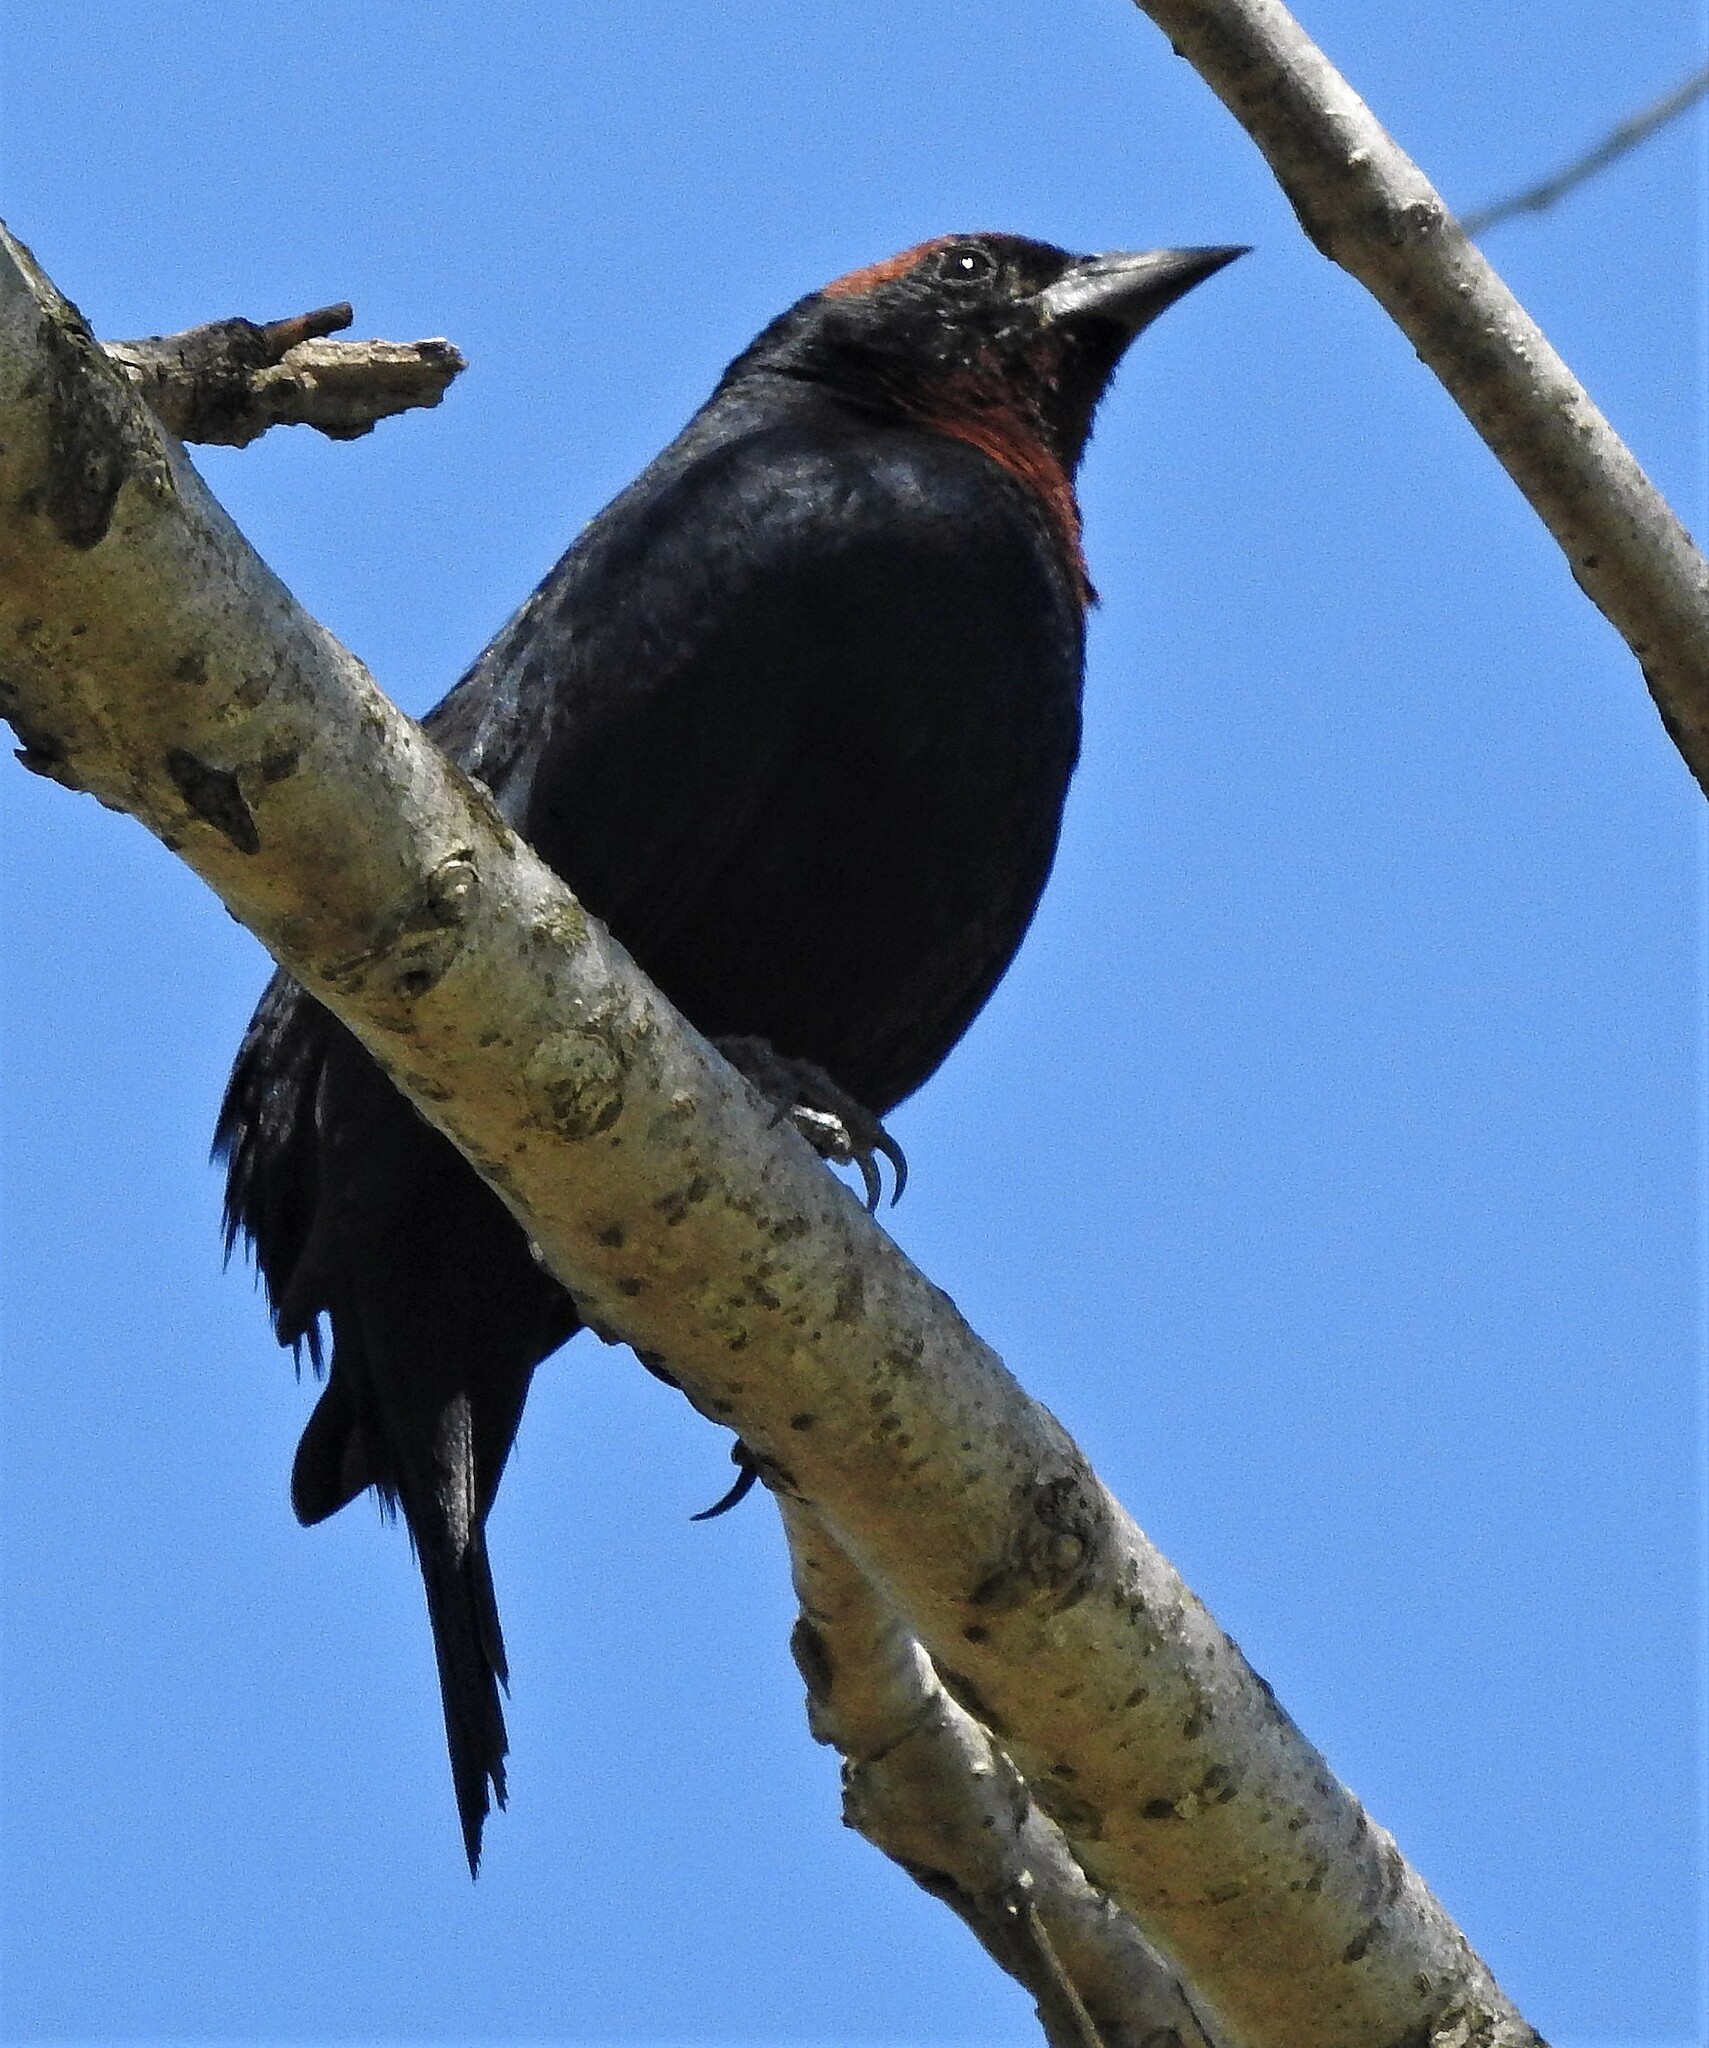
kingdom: Animalia
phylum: Chordata
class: Aves
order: Passeriformes
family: Icteridae
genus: Chrysomus
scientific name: Chrysomus ruficapillus
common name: Chestnut-capped blackbird
